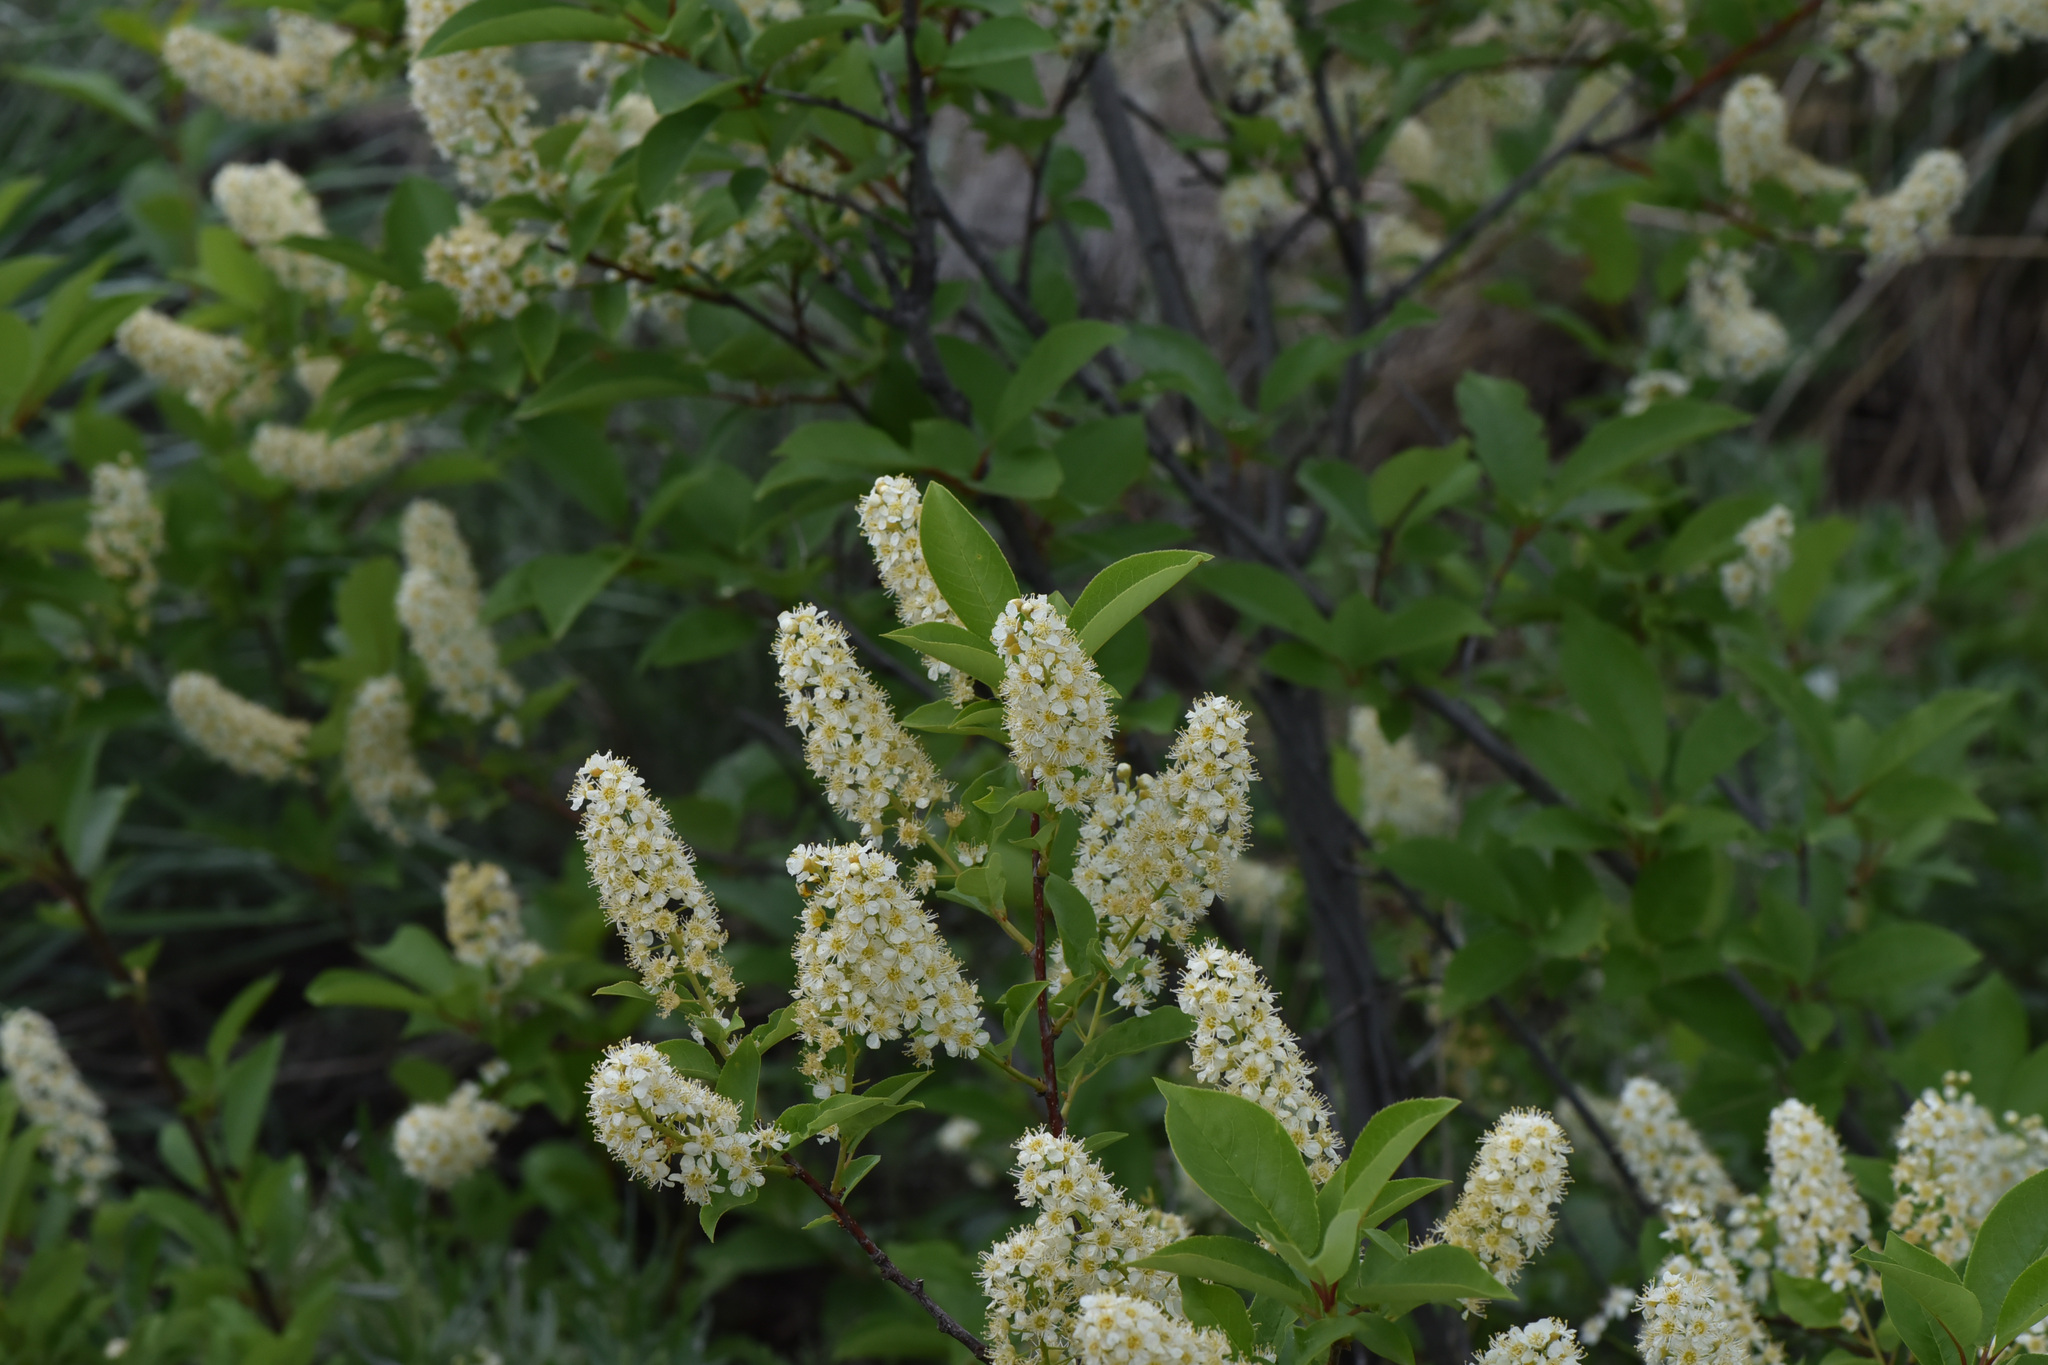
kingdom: Plantae
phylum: Tracheophyta
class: Magnoliopsida
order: Rosales
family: Rosaceae
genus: Prunus
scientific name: Prunus virginiana
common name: Chokecherry
